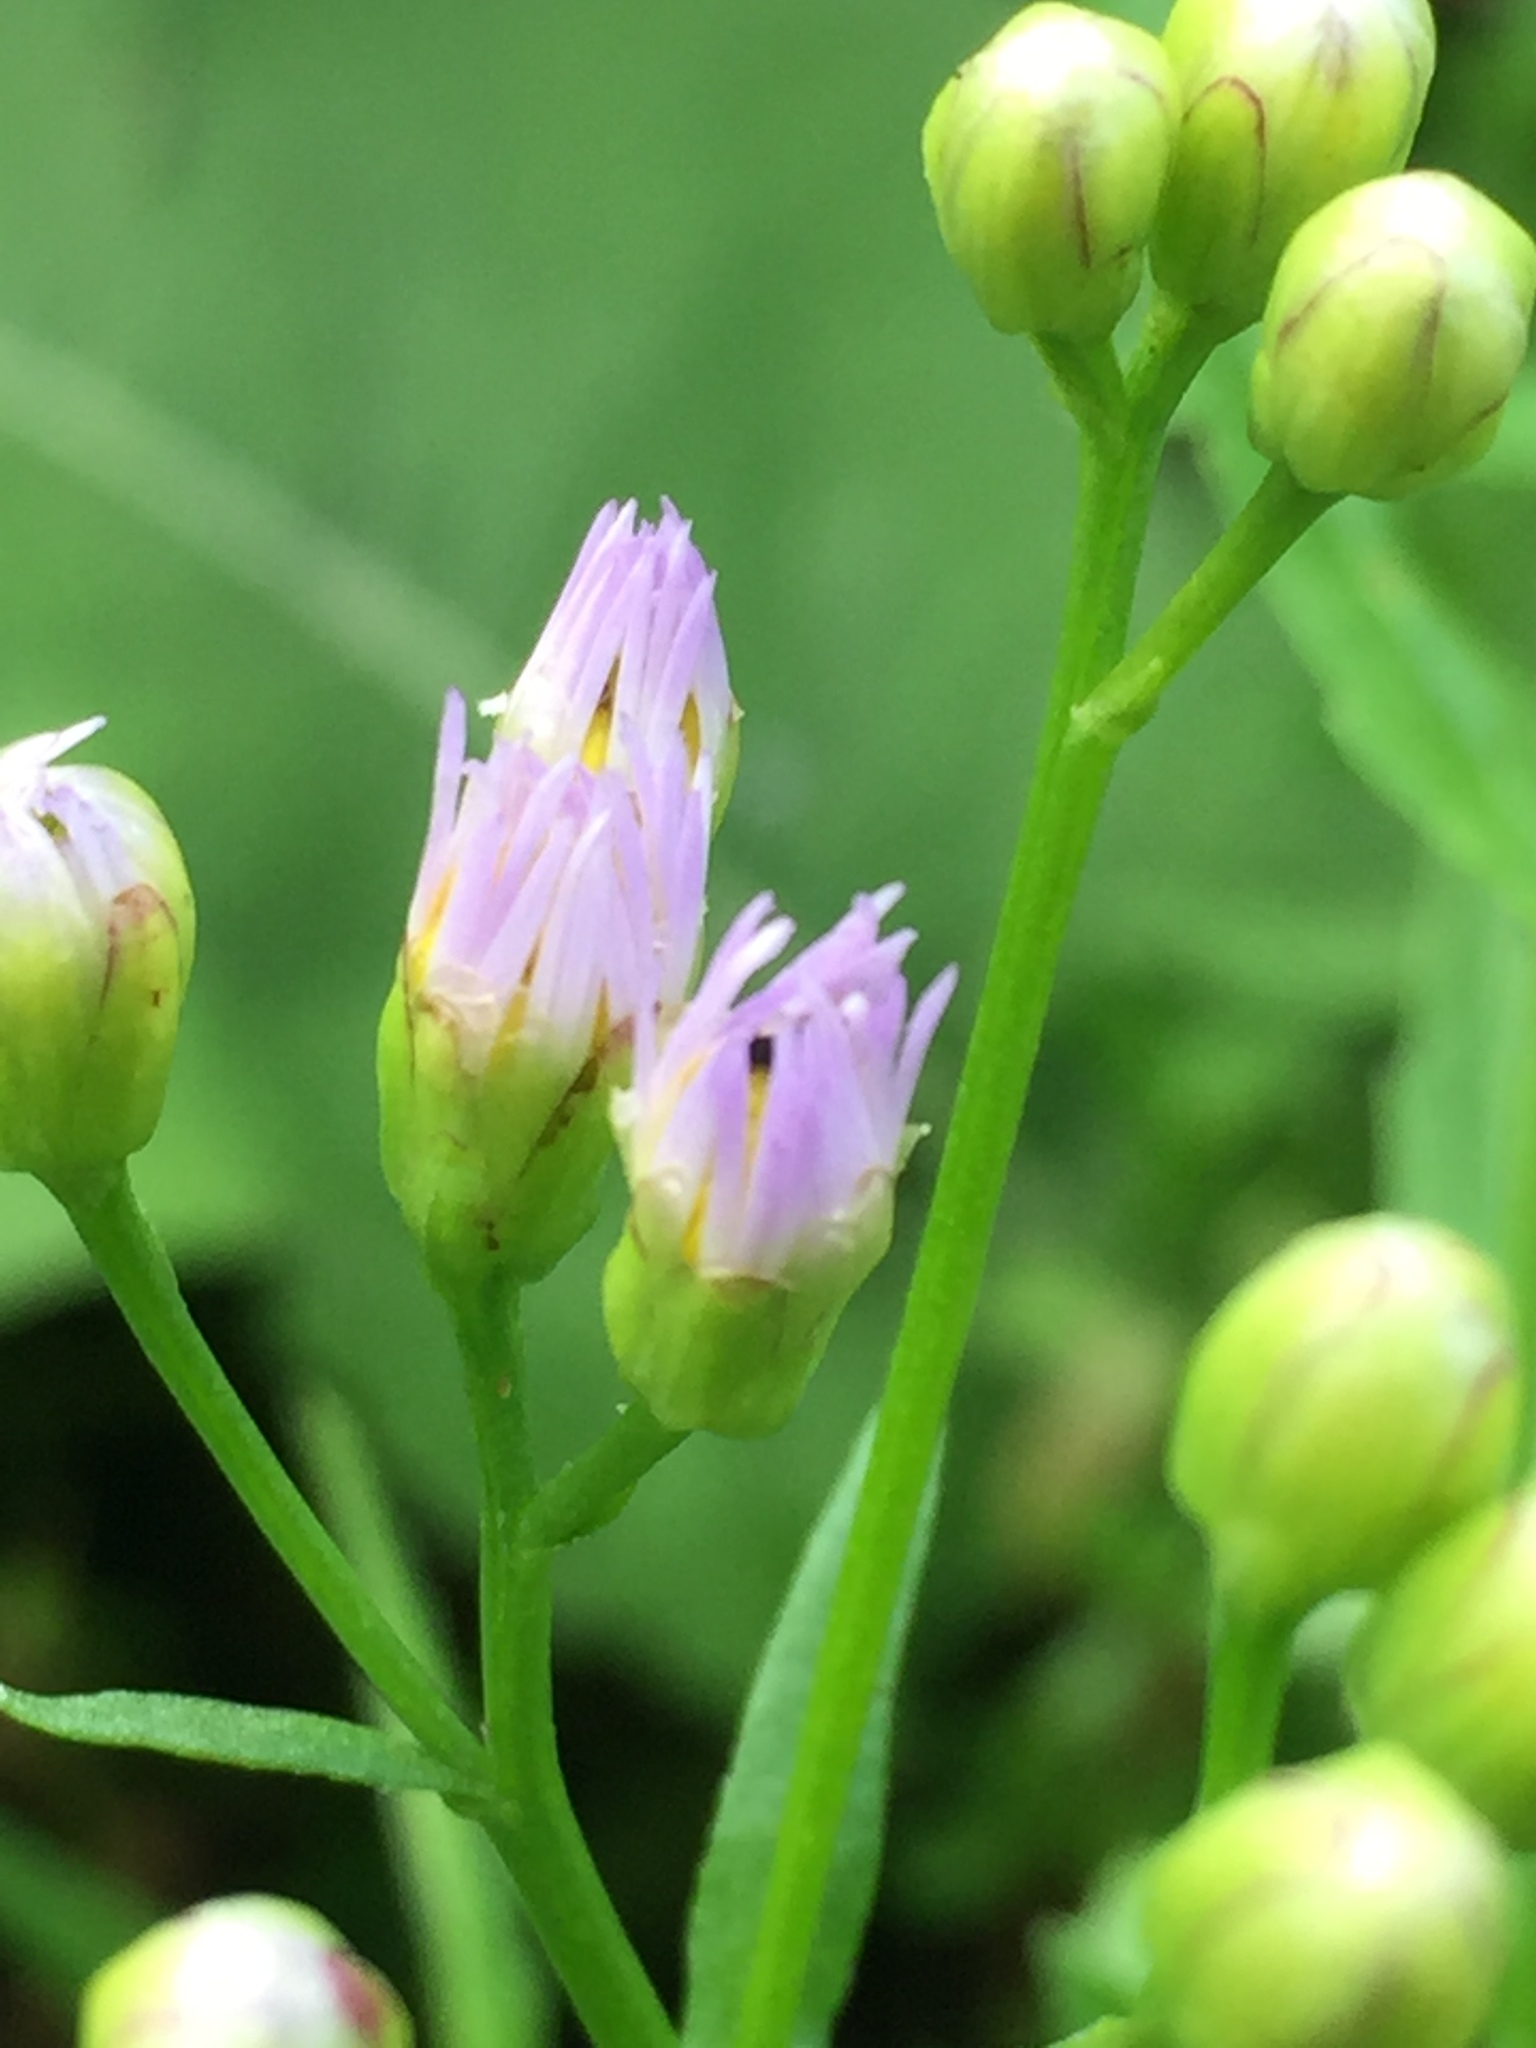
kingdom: Plantae
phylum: Tracheophyta
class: Magnoliopsida
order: Asterales
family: Asteraceae
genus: Tripolium
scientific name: Tripolium pannonicum
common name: Sea aster
